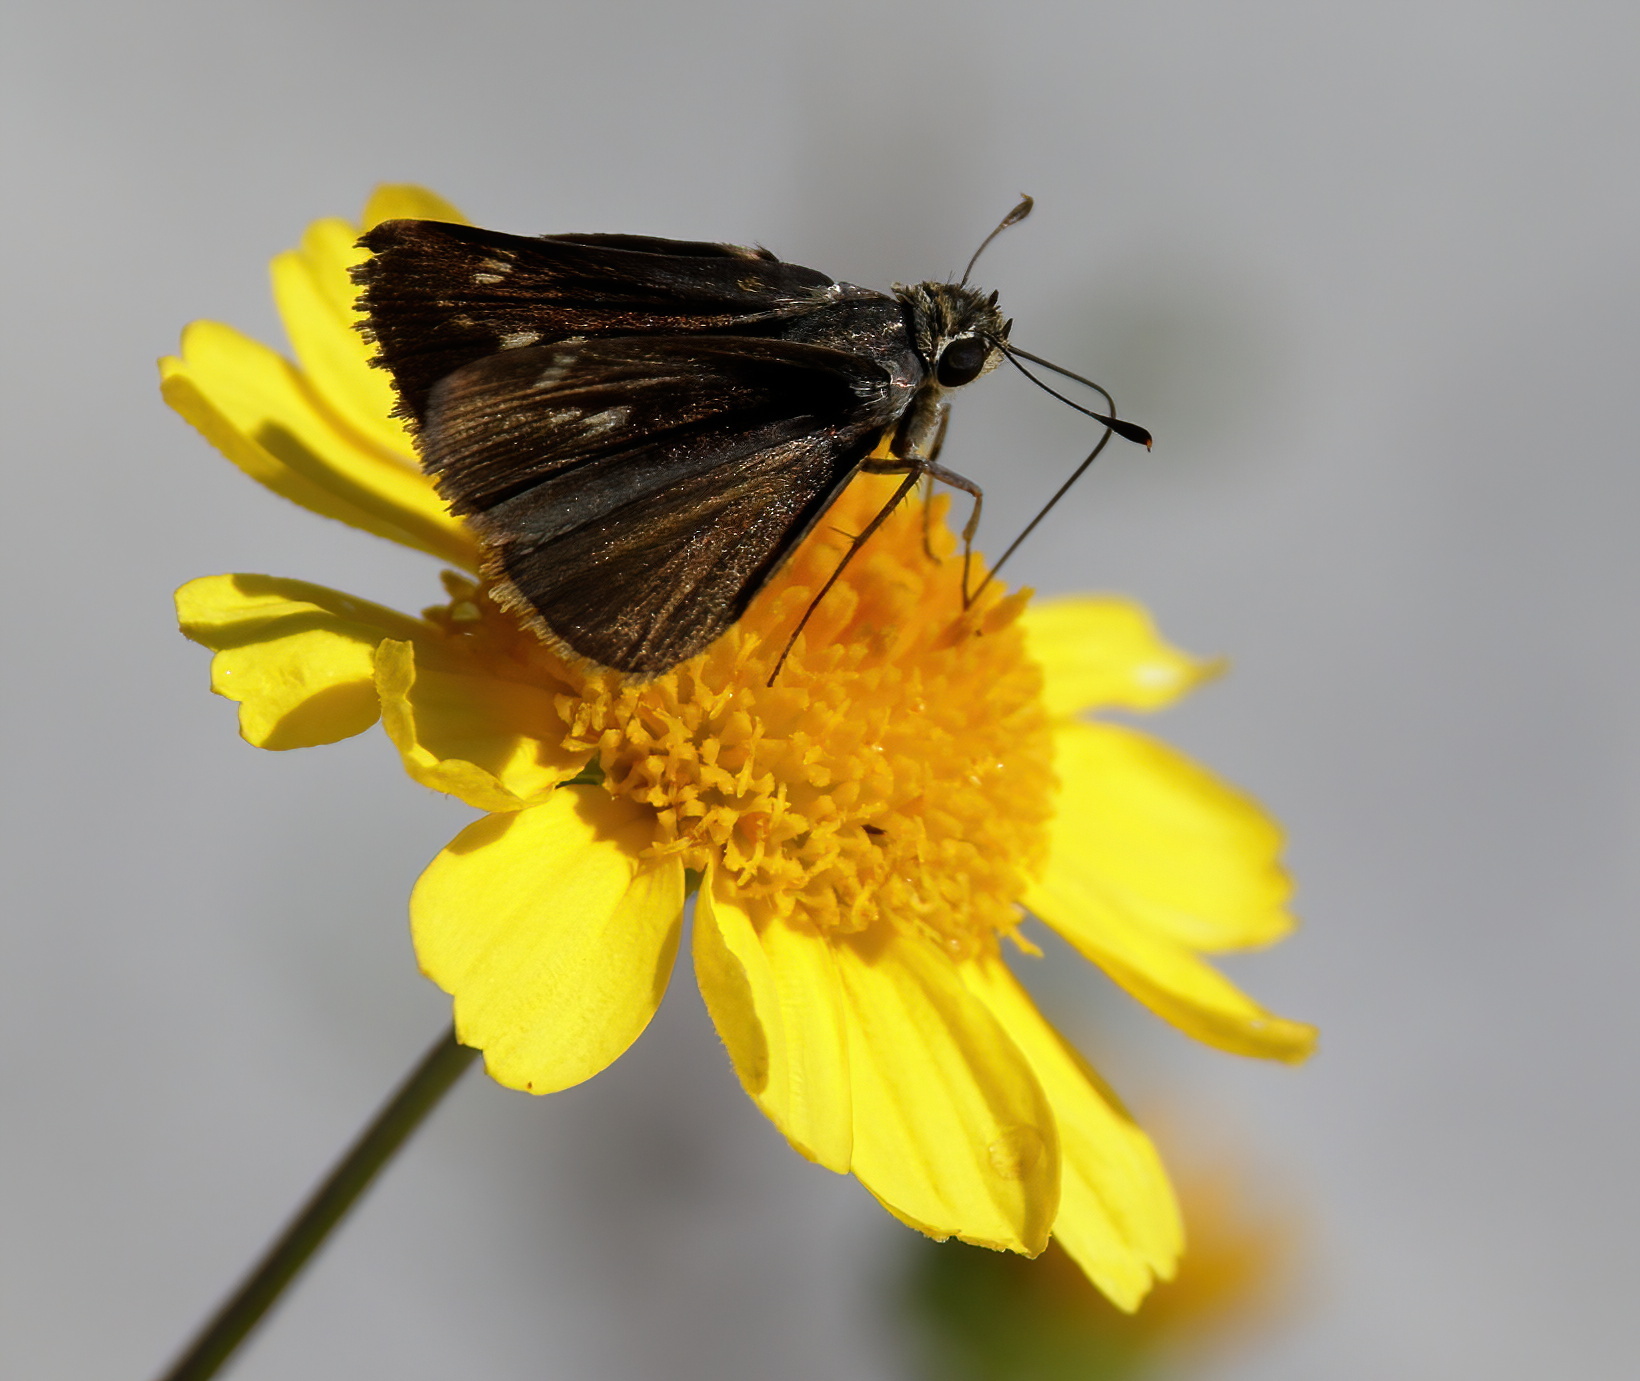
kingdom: Animalia
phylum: Arthropoda
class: Insecta
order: Lepidoptera
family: Hesperiidae
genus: Polites
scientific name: Polites vibex
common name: Whirlabout
